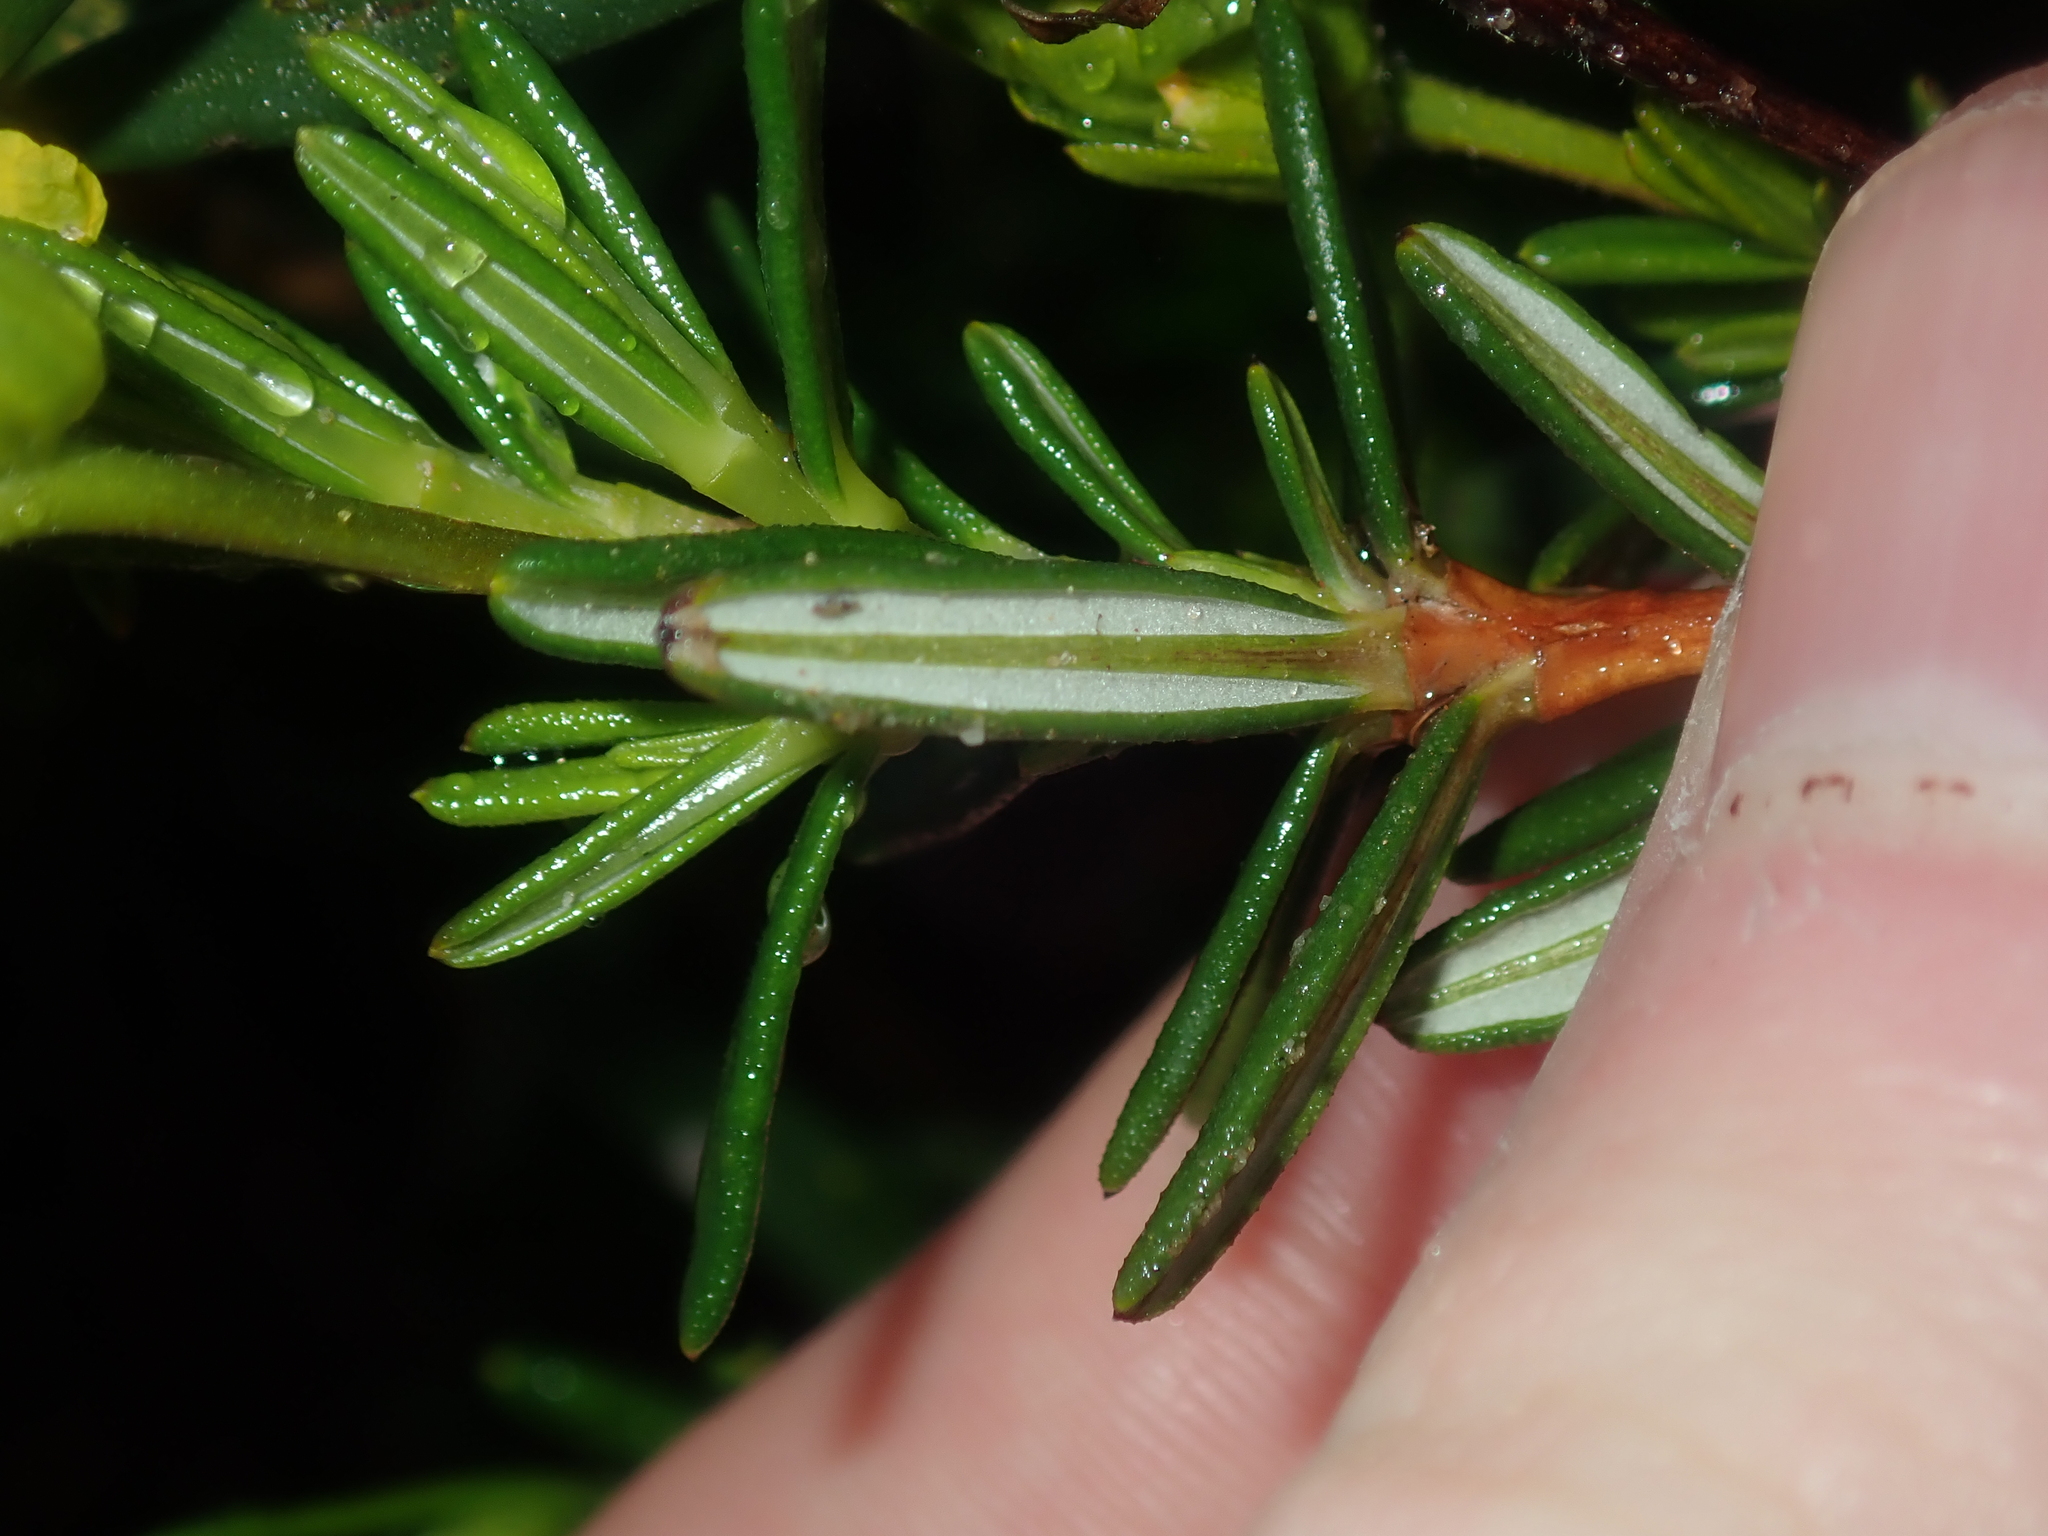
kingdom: Plantae
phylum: Tracheophyta
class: Magnoliopsida
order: Dilleniales
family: Dilleniaceae
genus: Hibbertia
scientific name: Hibbertia spicata
